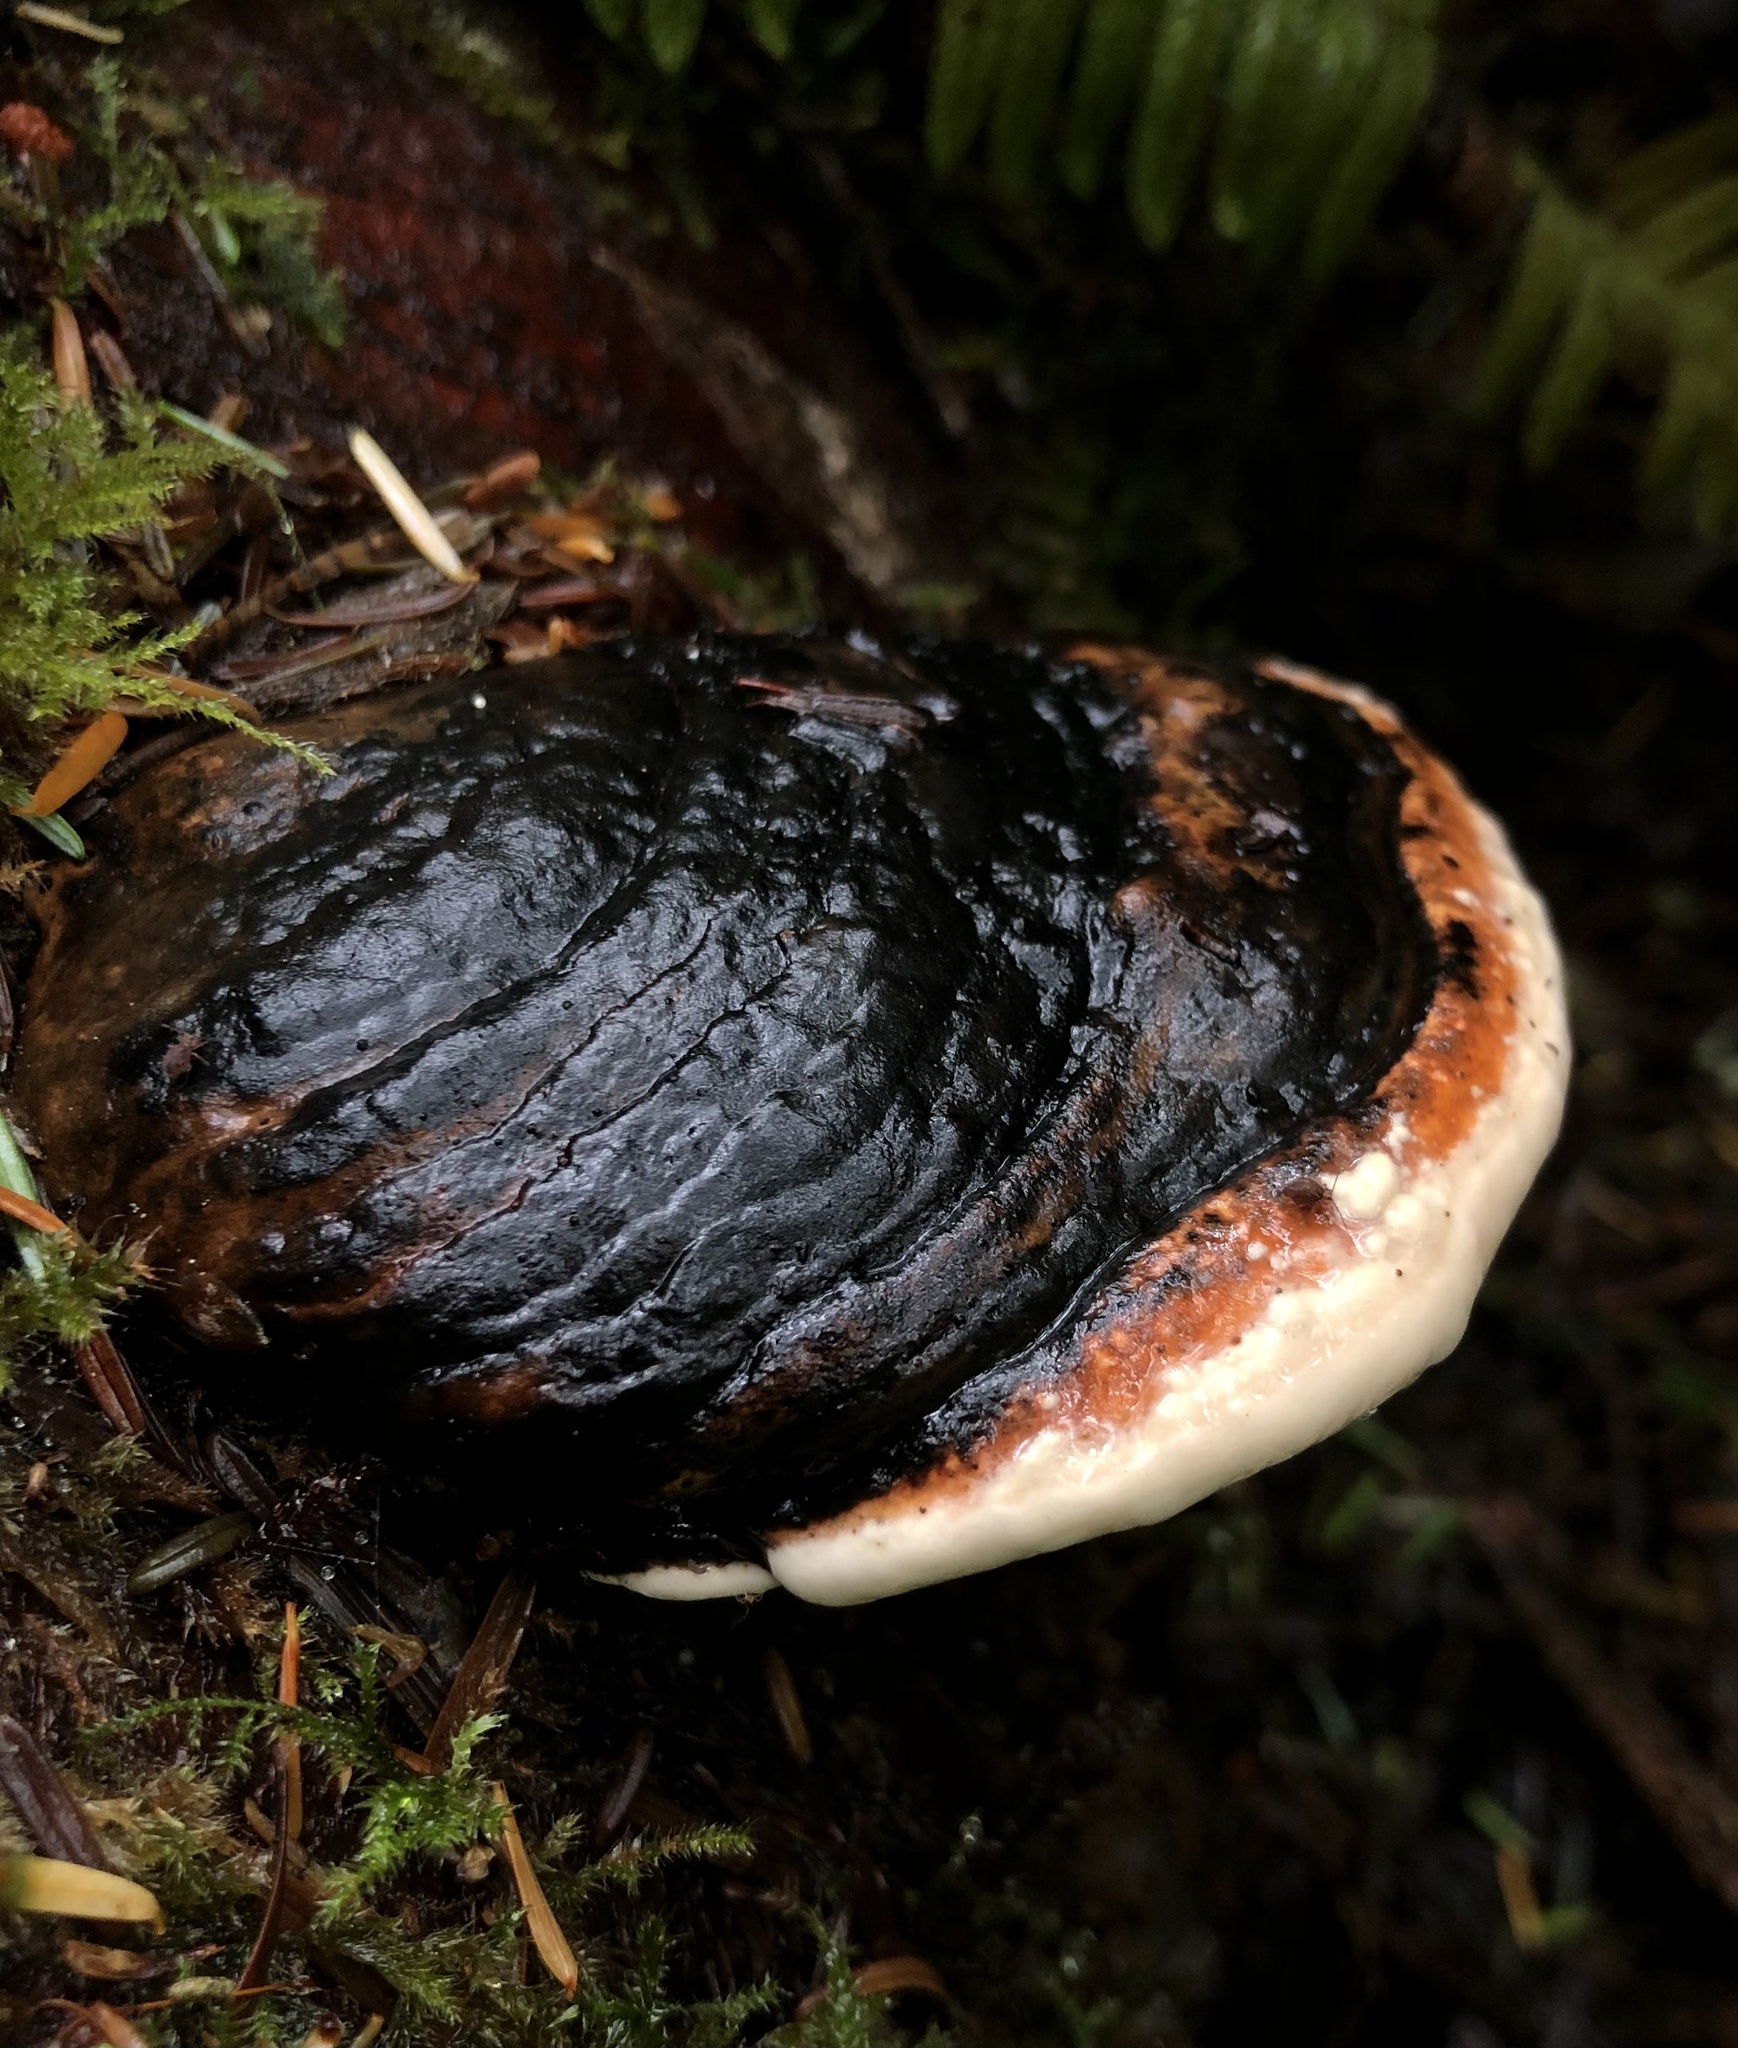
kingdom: Fungi
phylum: Basidiomycota
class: Agaricomycetes
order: Polyporales
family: Fomitopsidaceae
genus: Fomitopsis
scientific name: Fomitopsis mounceae
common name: Northern red belt
